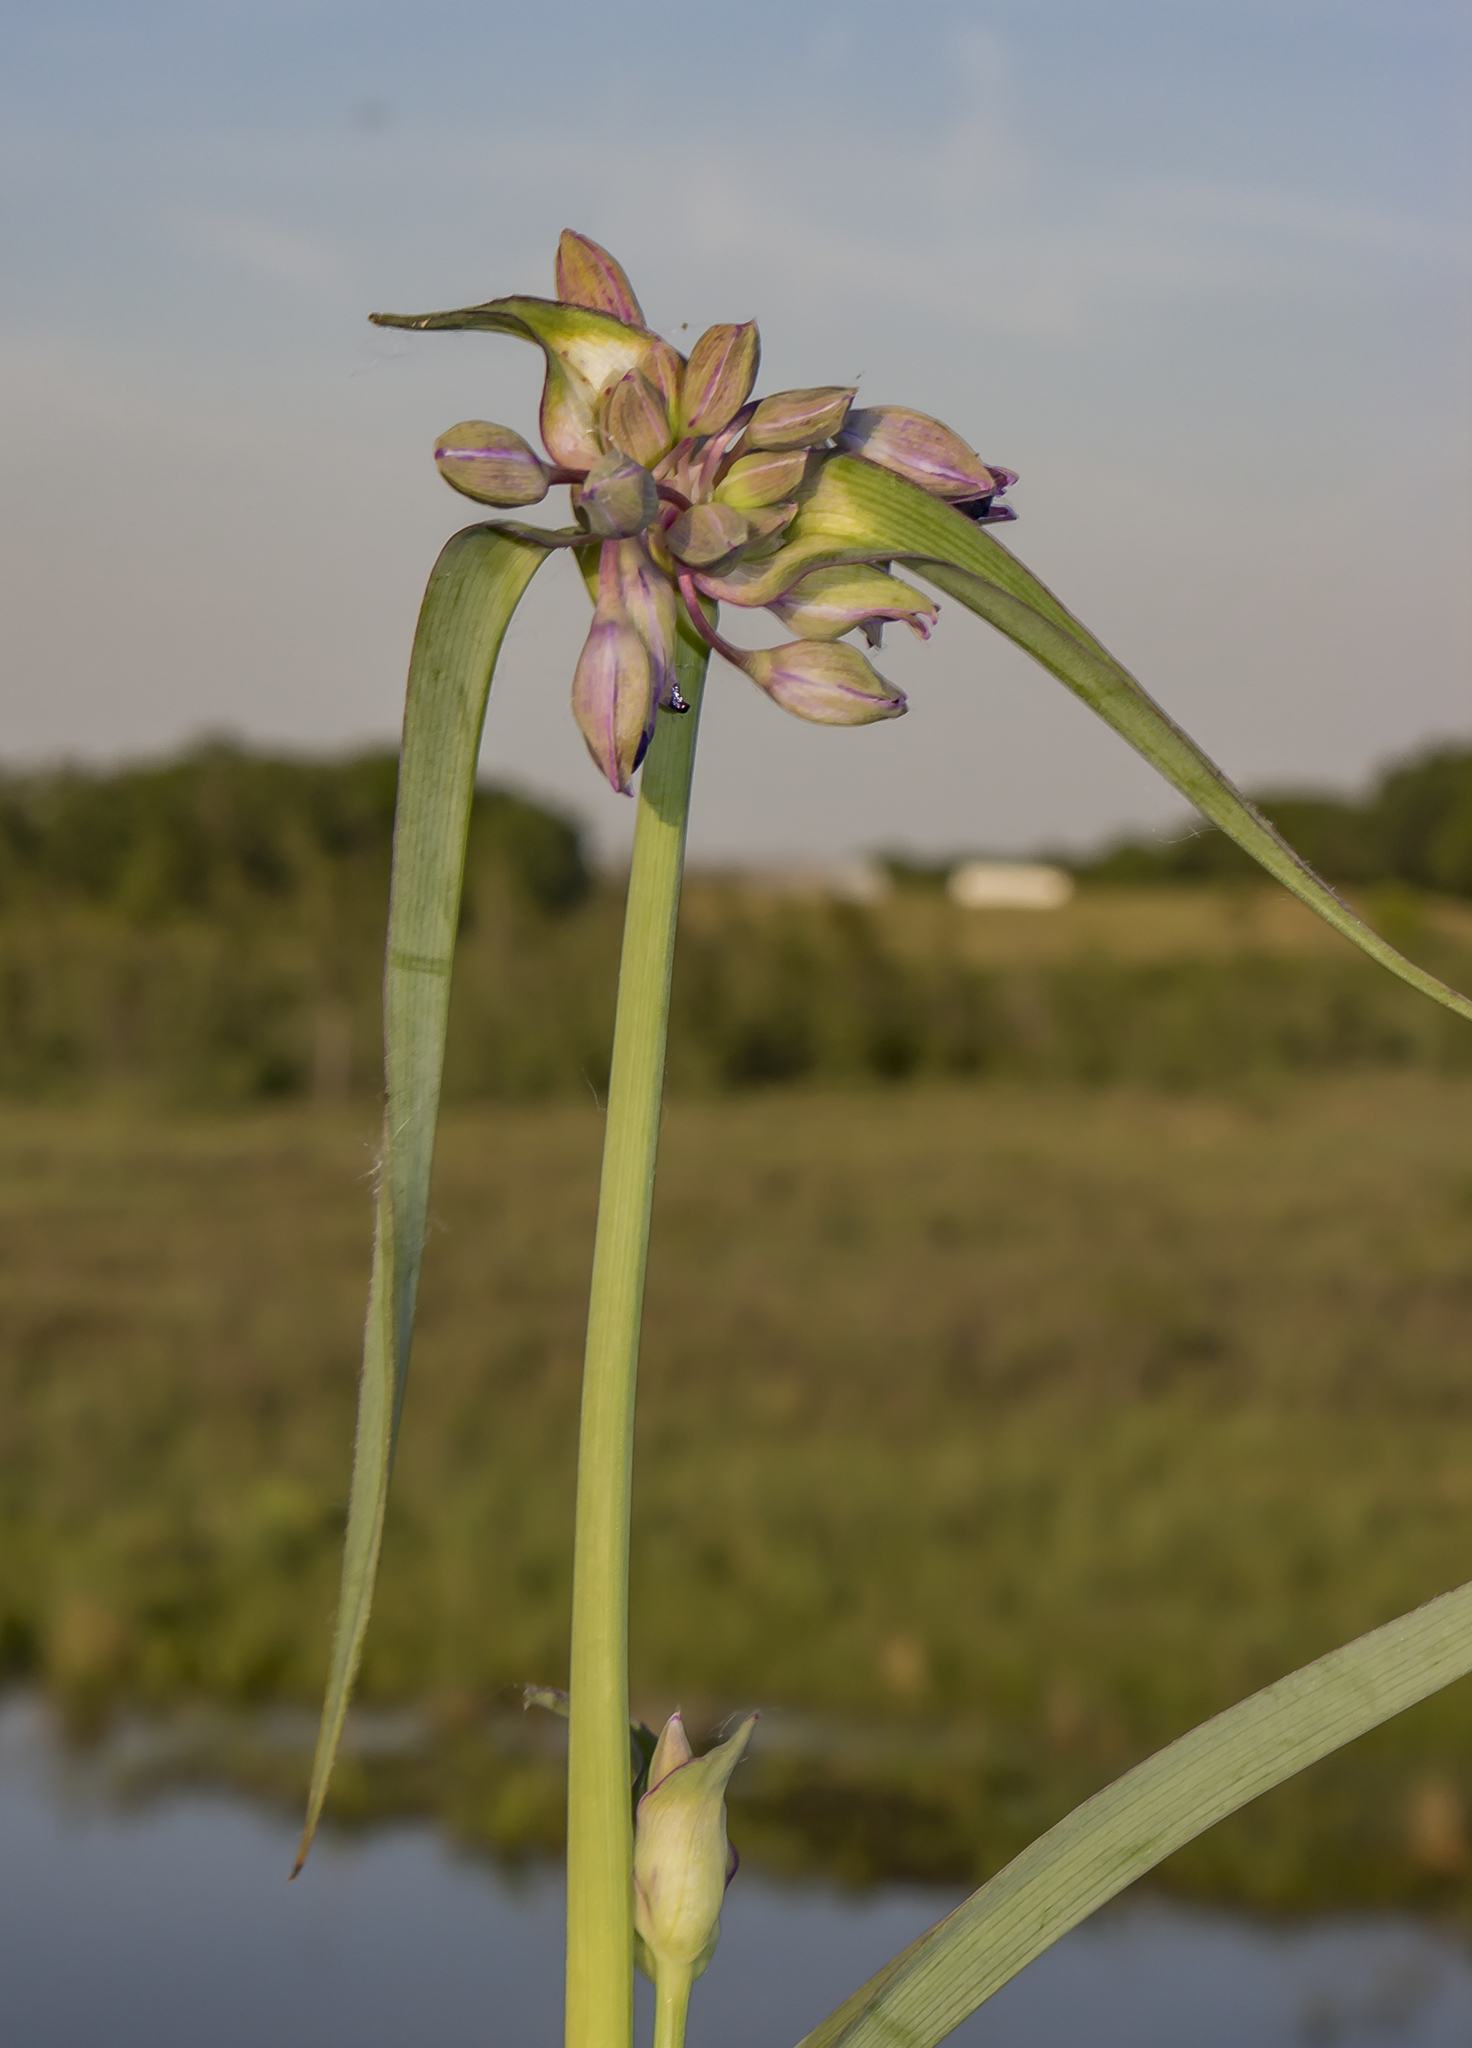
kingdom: Plantae
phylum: Tracheophyta
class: Liliopsida
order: Commelinales
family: Commelinaceae
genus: Tradescantia
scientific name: Tradescantia ohiensis
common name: Ohio spiderwort
